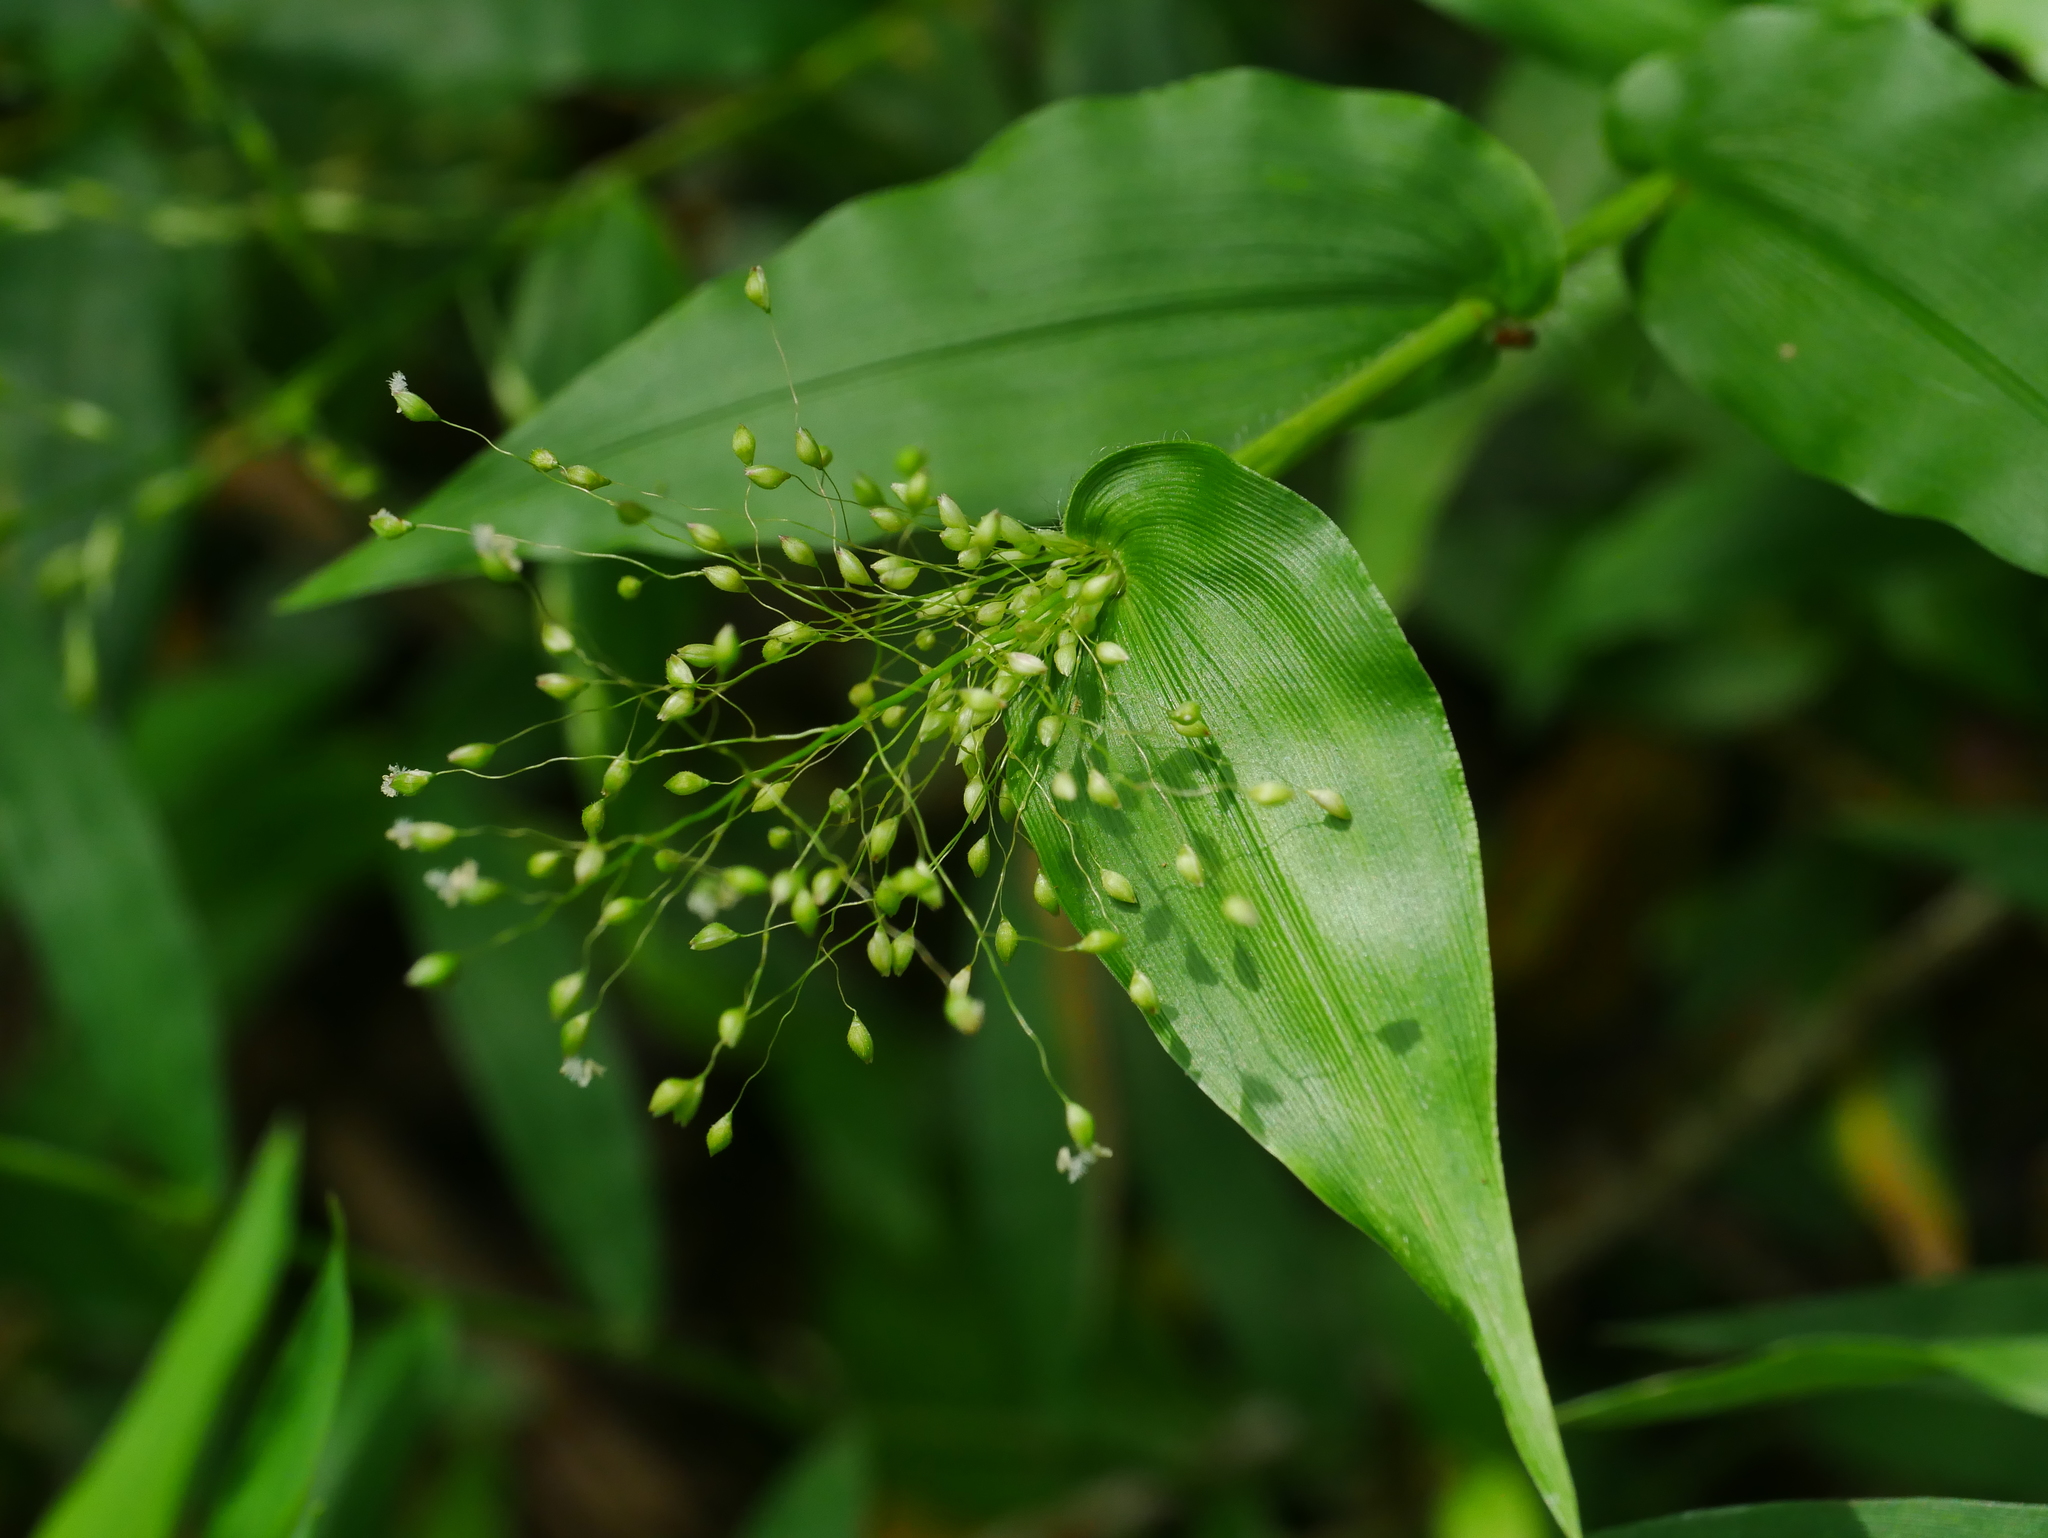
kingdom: Plantae
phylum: Tracheophyta
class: Liliopsida
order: Poales
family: Poaceae
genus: Panicum
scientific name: Panicum brevifolium
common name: Shortleaf panic grass
